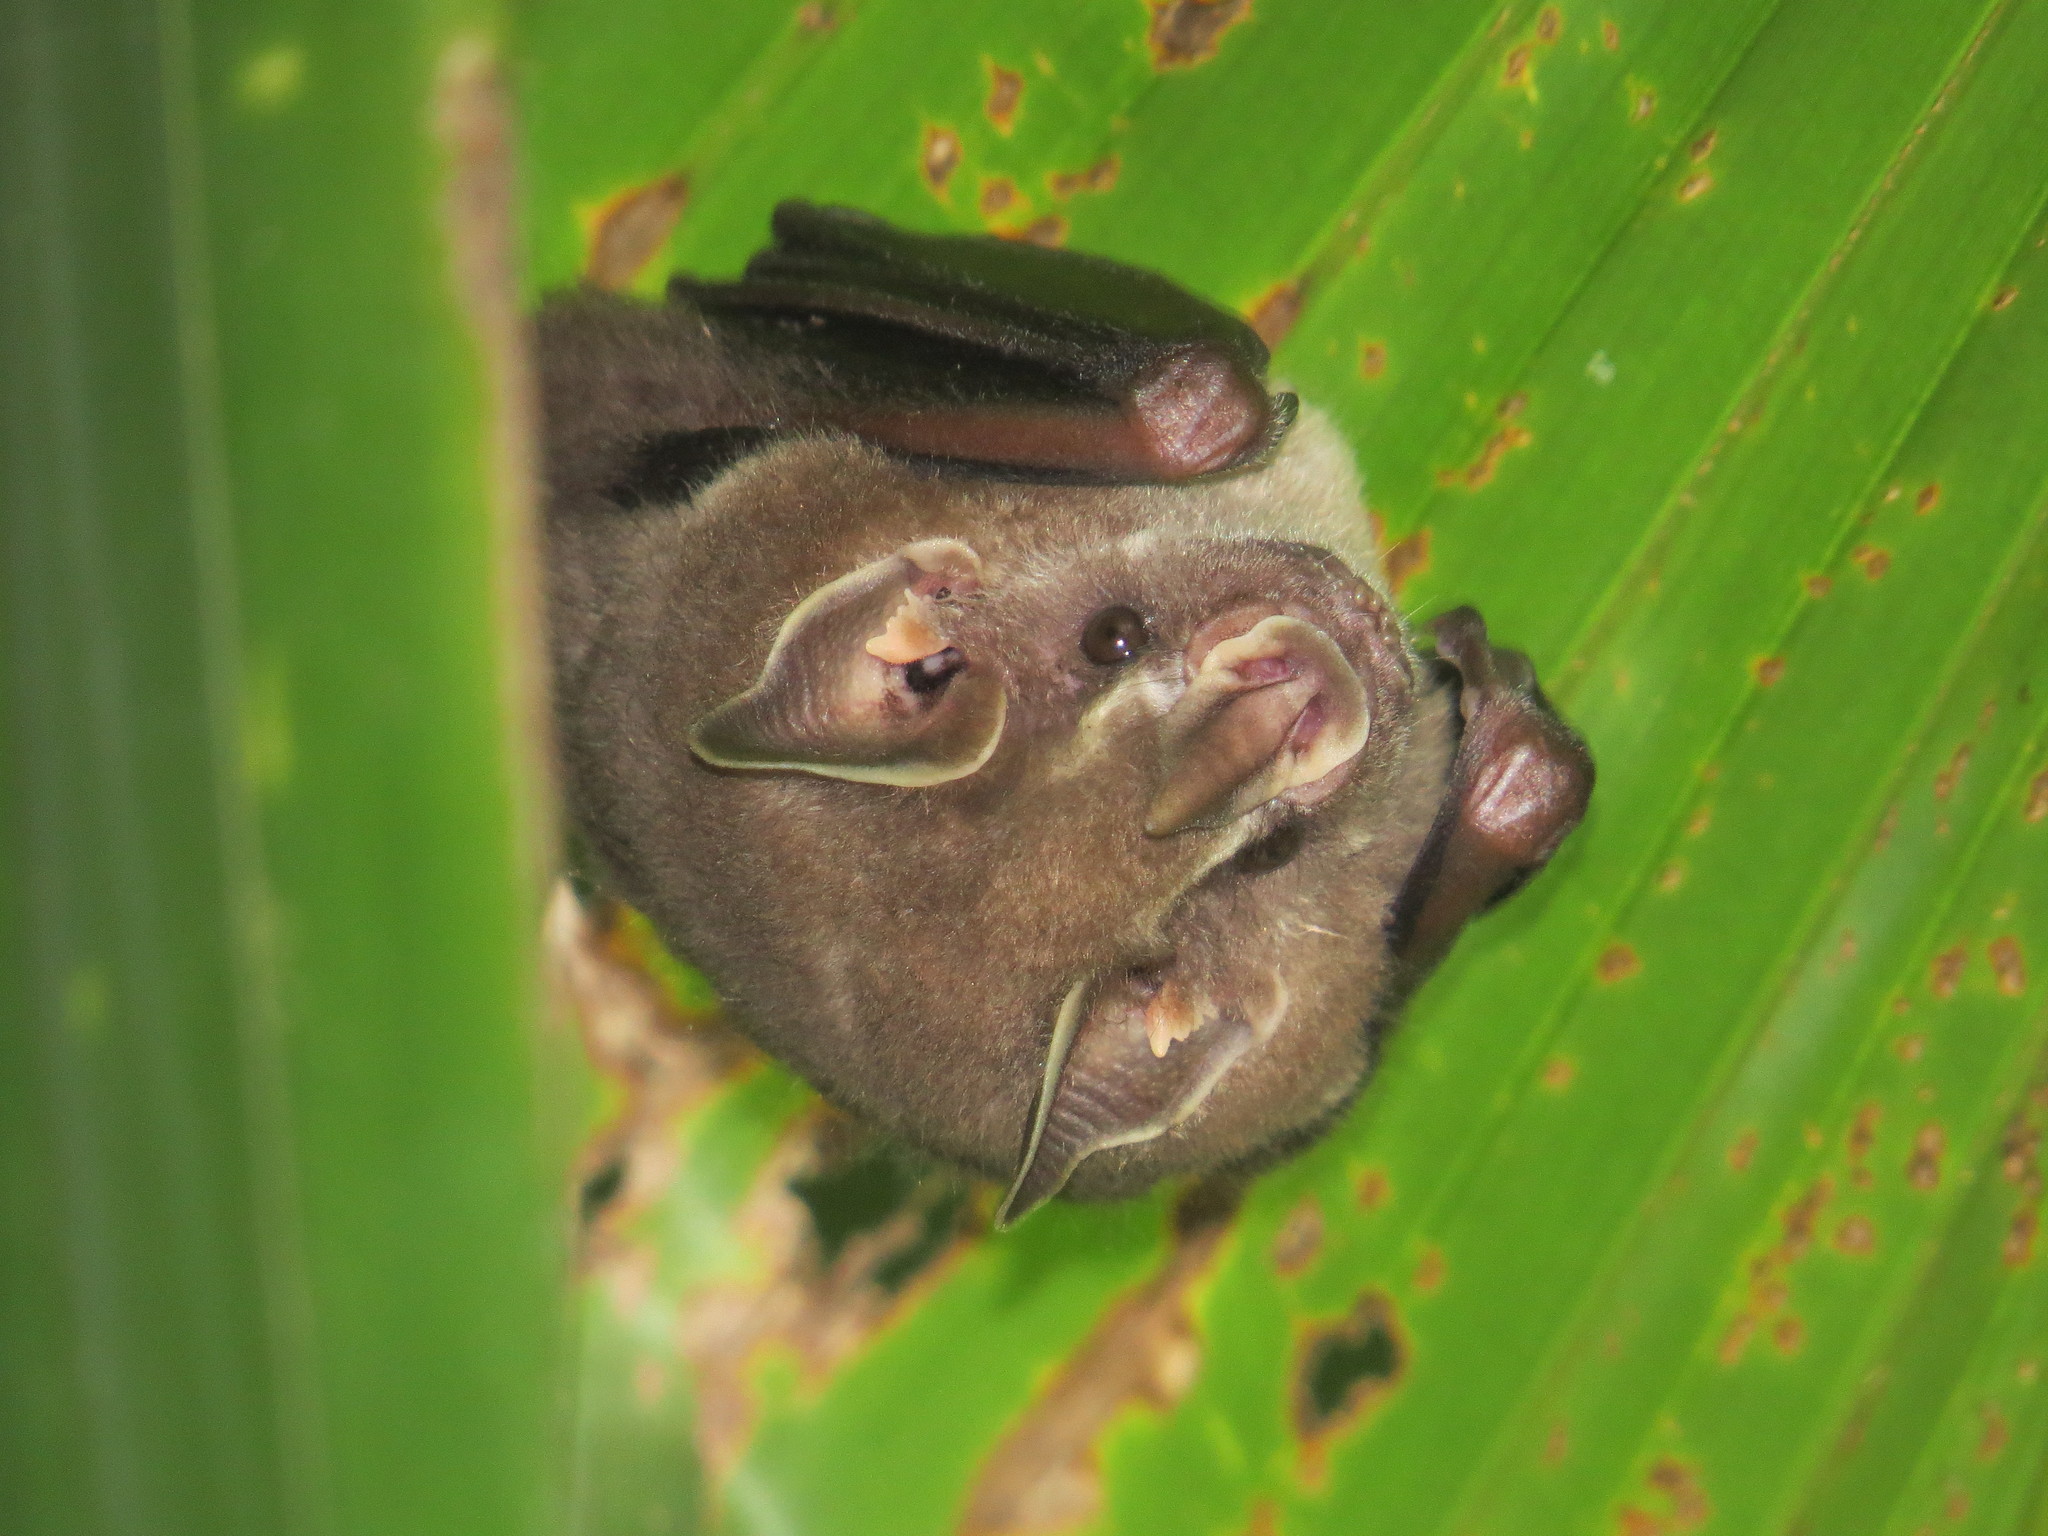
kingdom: Animalia
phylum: Chordata
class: Mammalia
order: Chiroptera
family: Phyllostomidae
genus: Artibeus
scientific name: Artibeus watsoni
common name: Thomas's fruit-eating bat
